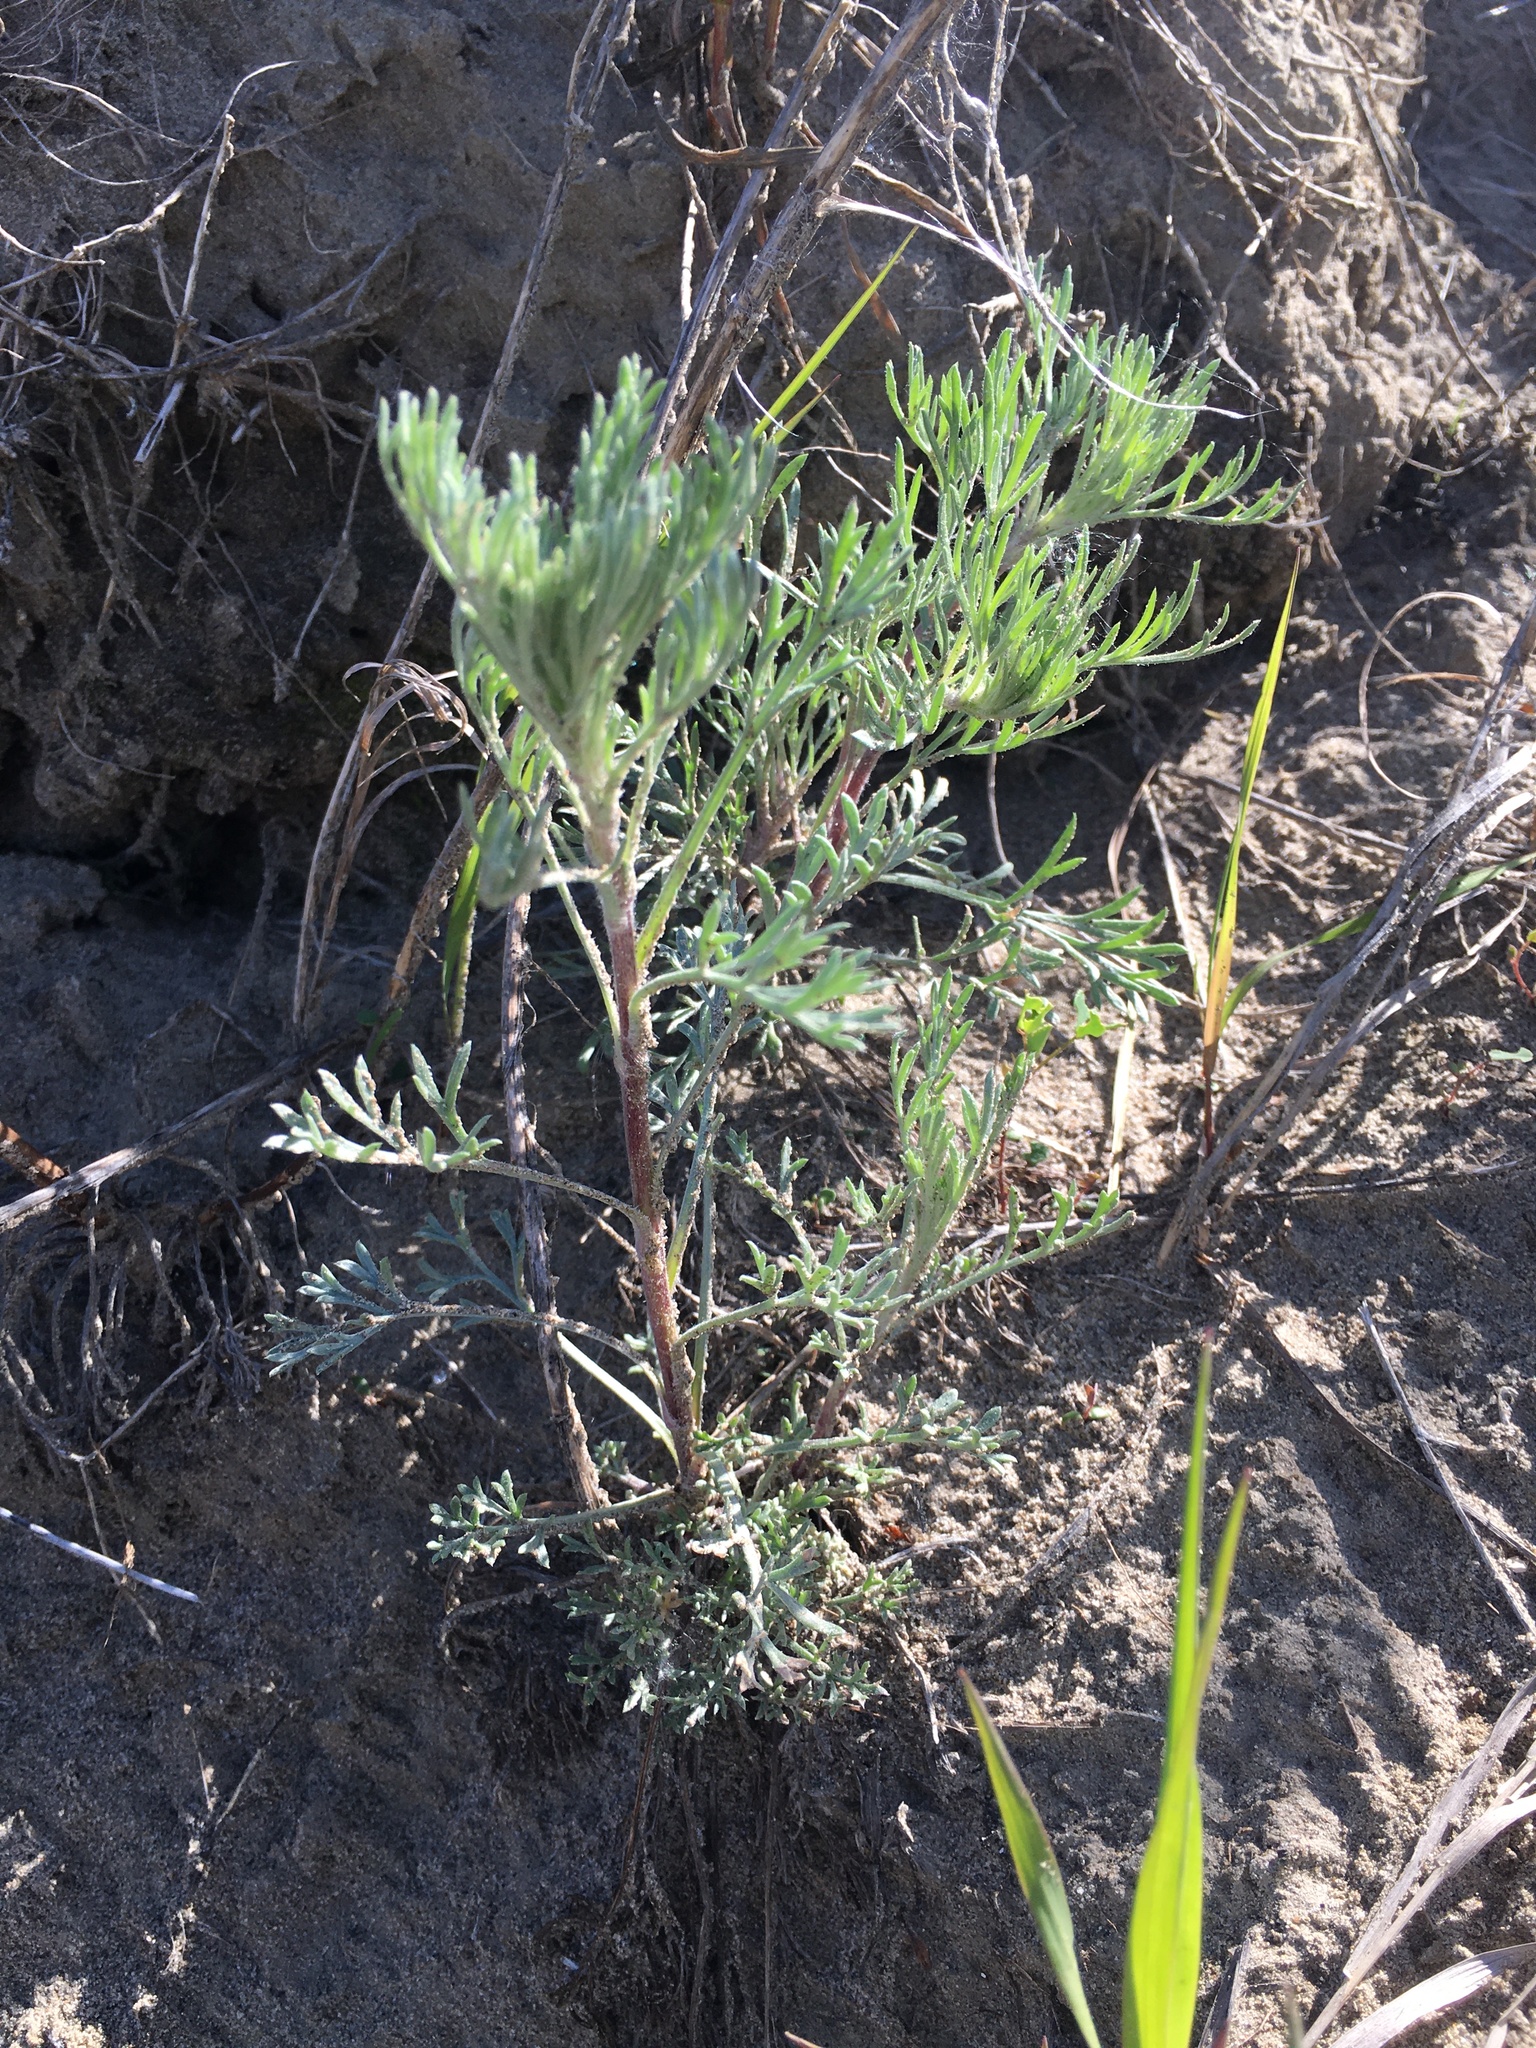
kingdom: Plantae
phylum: Tracheophyta
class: Magnoliopsida
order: Asterales
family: Asteraceae
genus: Artemisia
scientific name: Artemisia campestris
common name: Field wormwood
